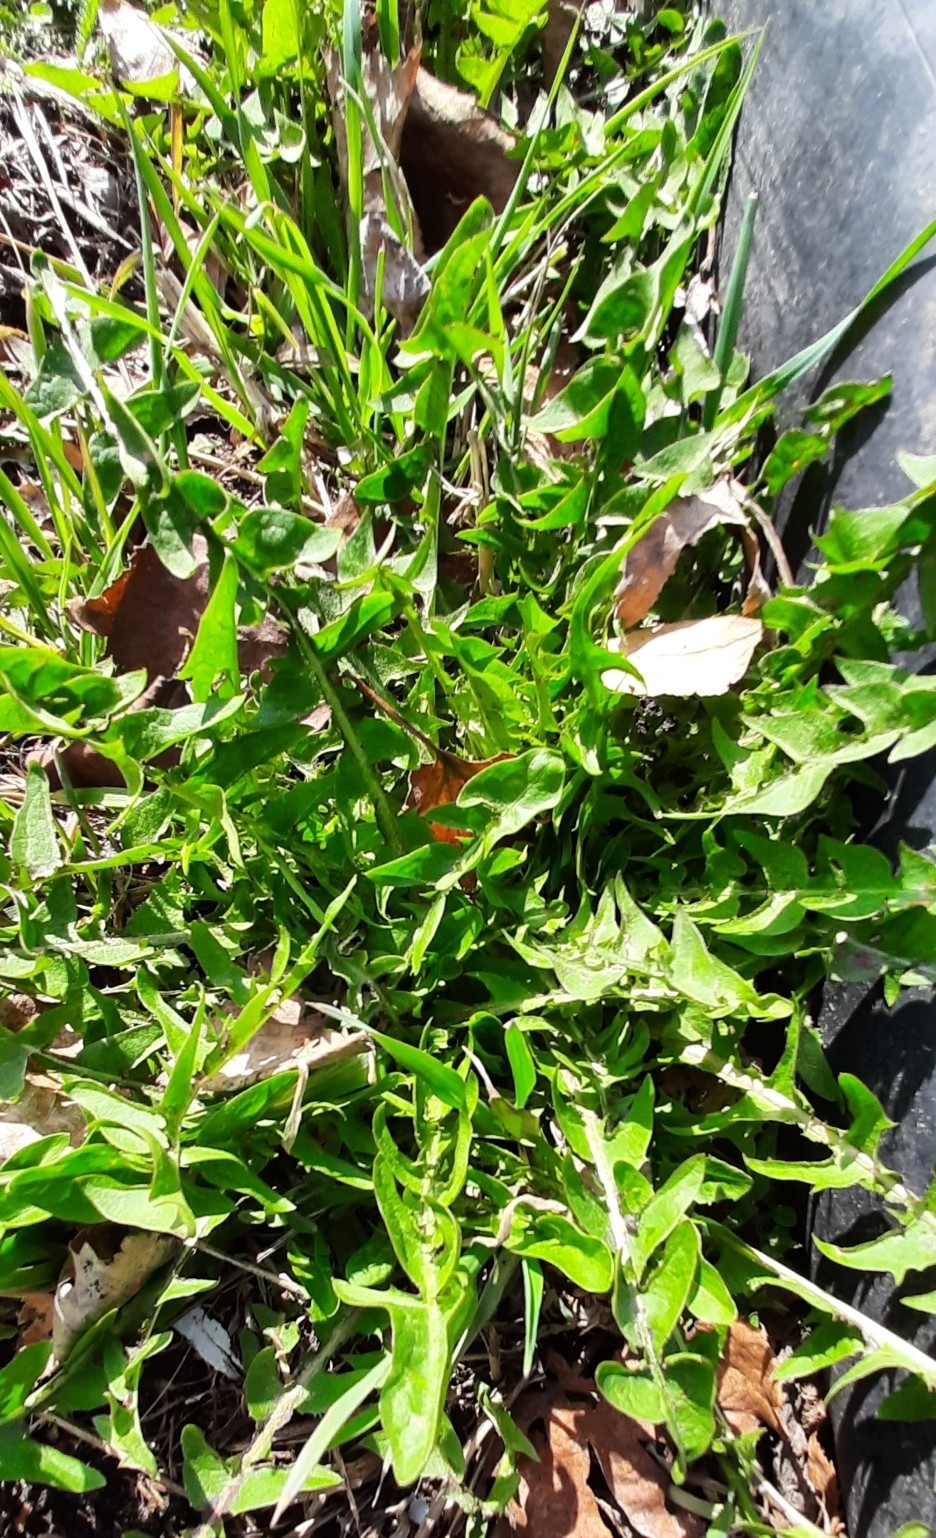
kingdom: Plantae
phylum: Tracheophyta
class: Magnoliopsida
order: Asterales
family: Asteraceae
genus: Taraxacum
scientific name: Taraxacum officinale
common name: Common dandelion
